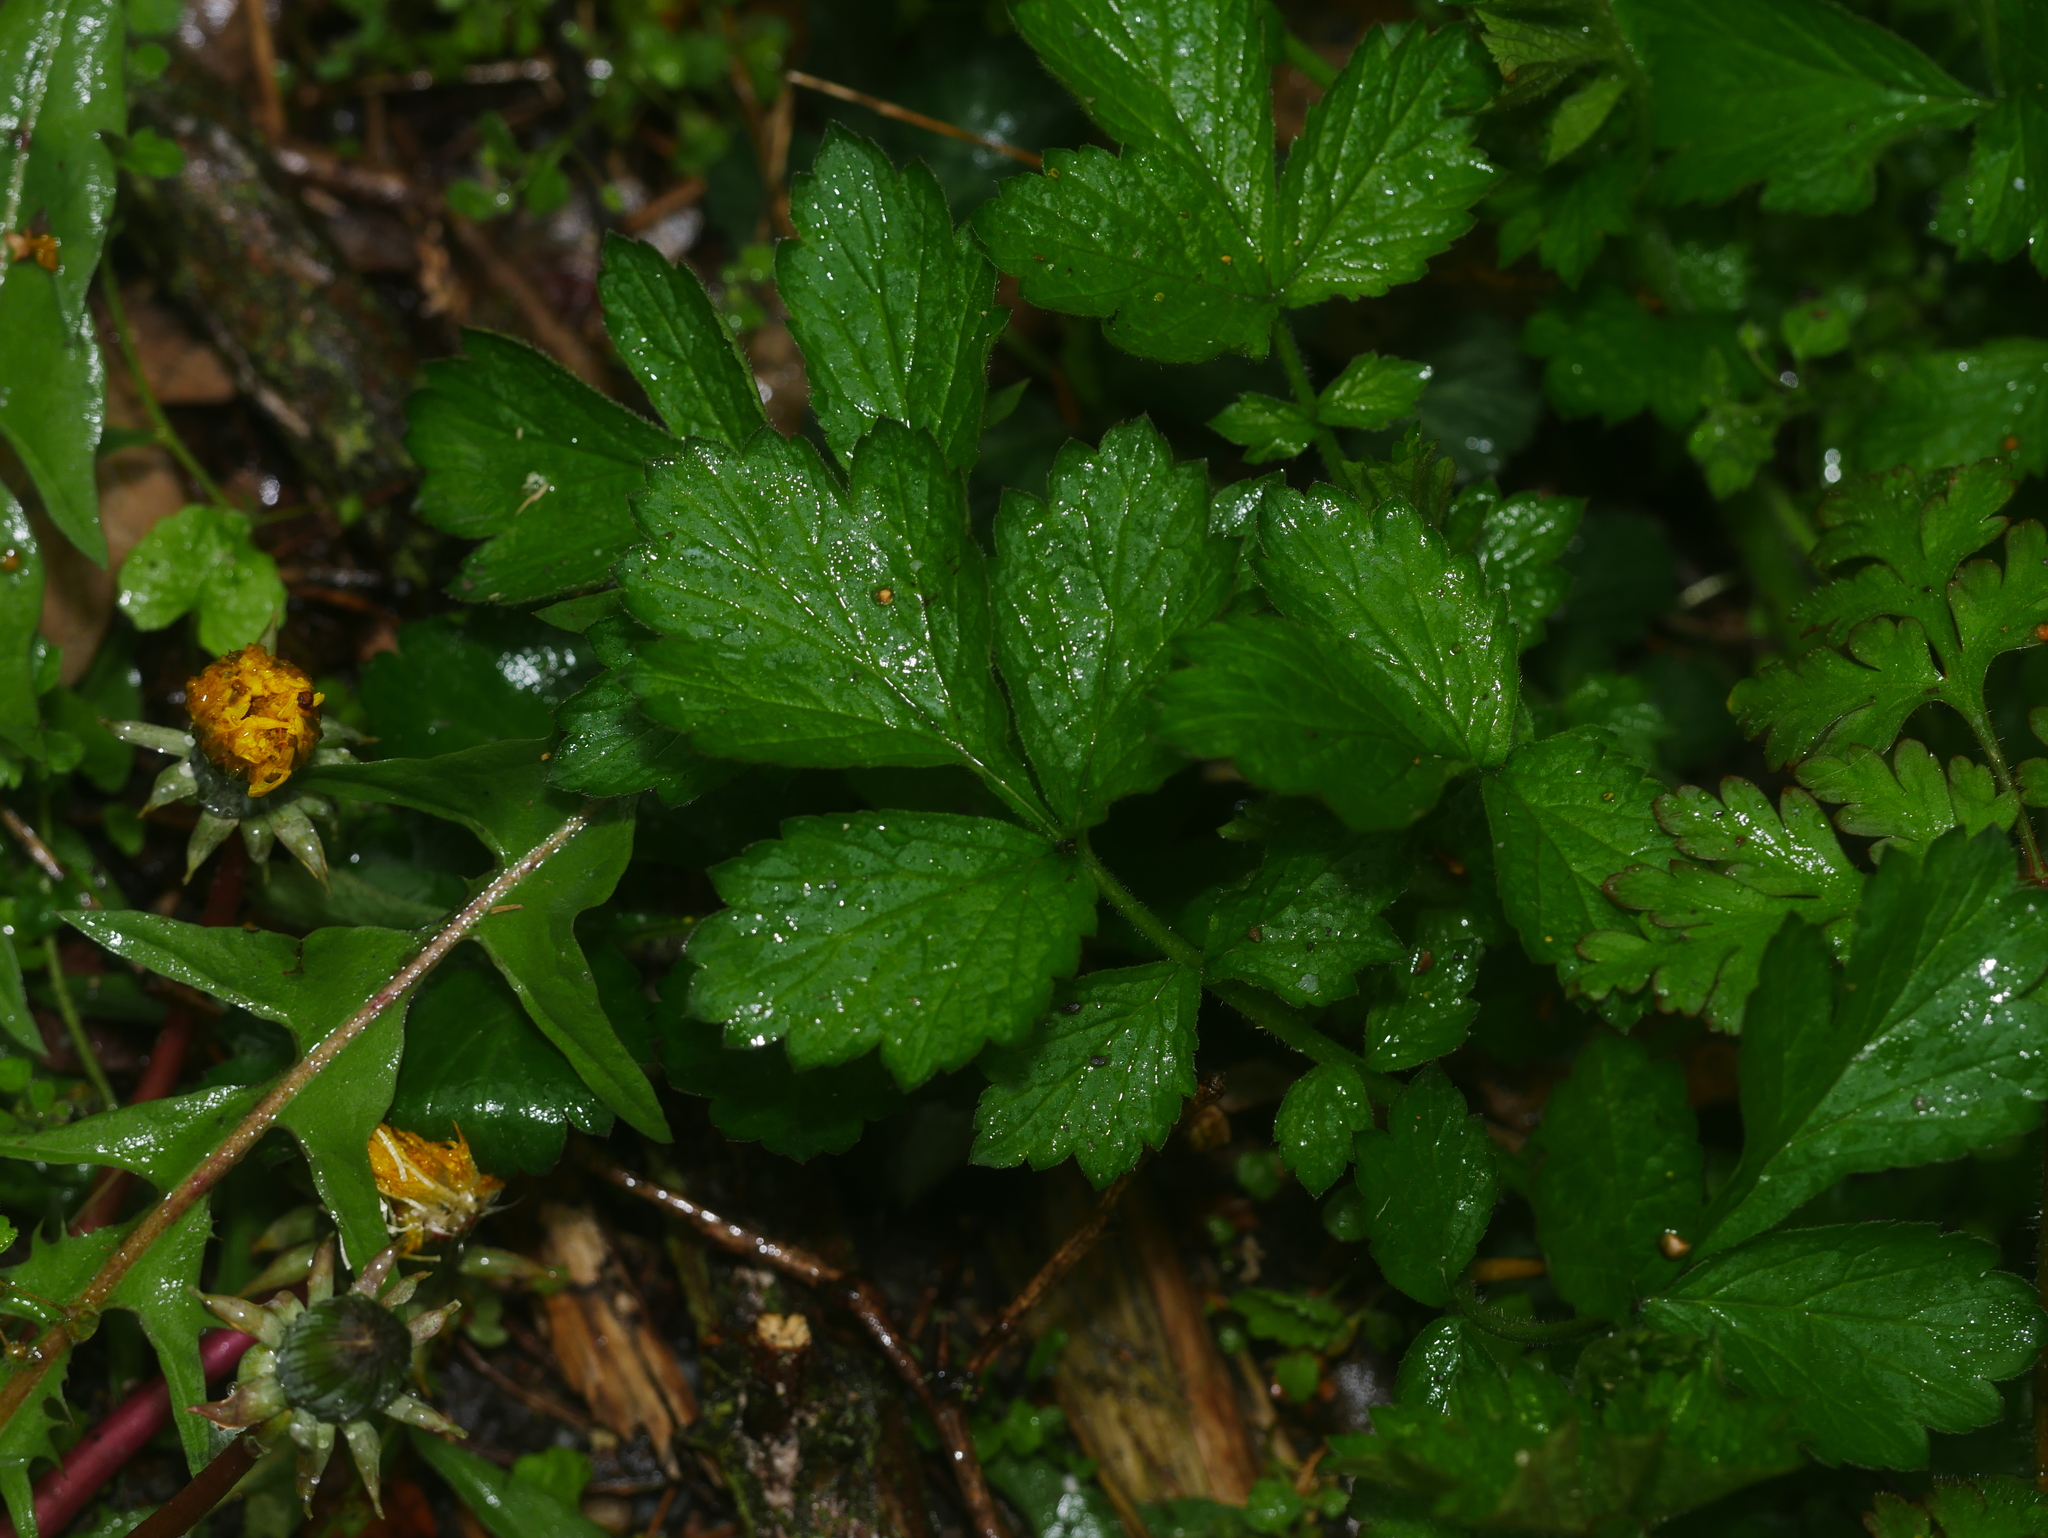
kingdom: Plantae
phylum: Tracheophyta
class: Magnoliopsida
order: Rosales
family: Rosaceae
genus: Geum
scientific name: Geum urbanum
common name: Wood avens
